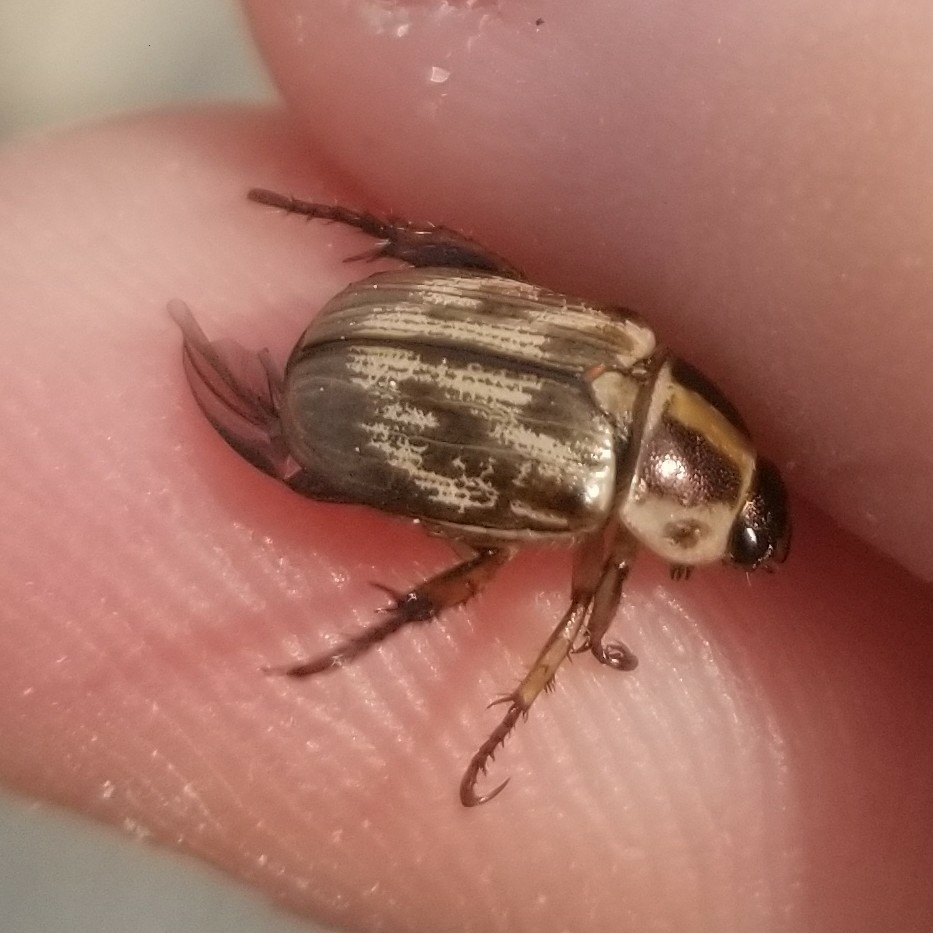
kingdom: Animalia
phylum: Arthropoda
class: Insecta
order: Coleoptera
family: Scarabaeidae
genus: Exomala
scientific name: Exomala orientalis
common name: Oriental beetle
